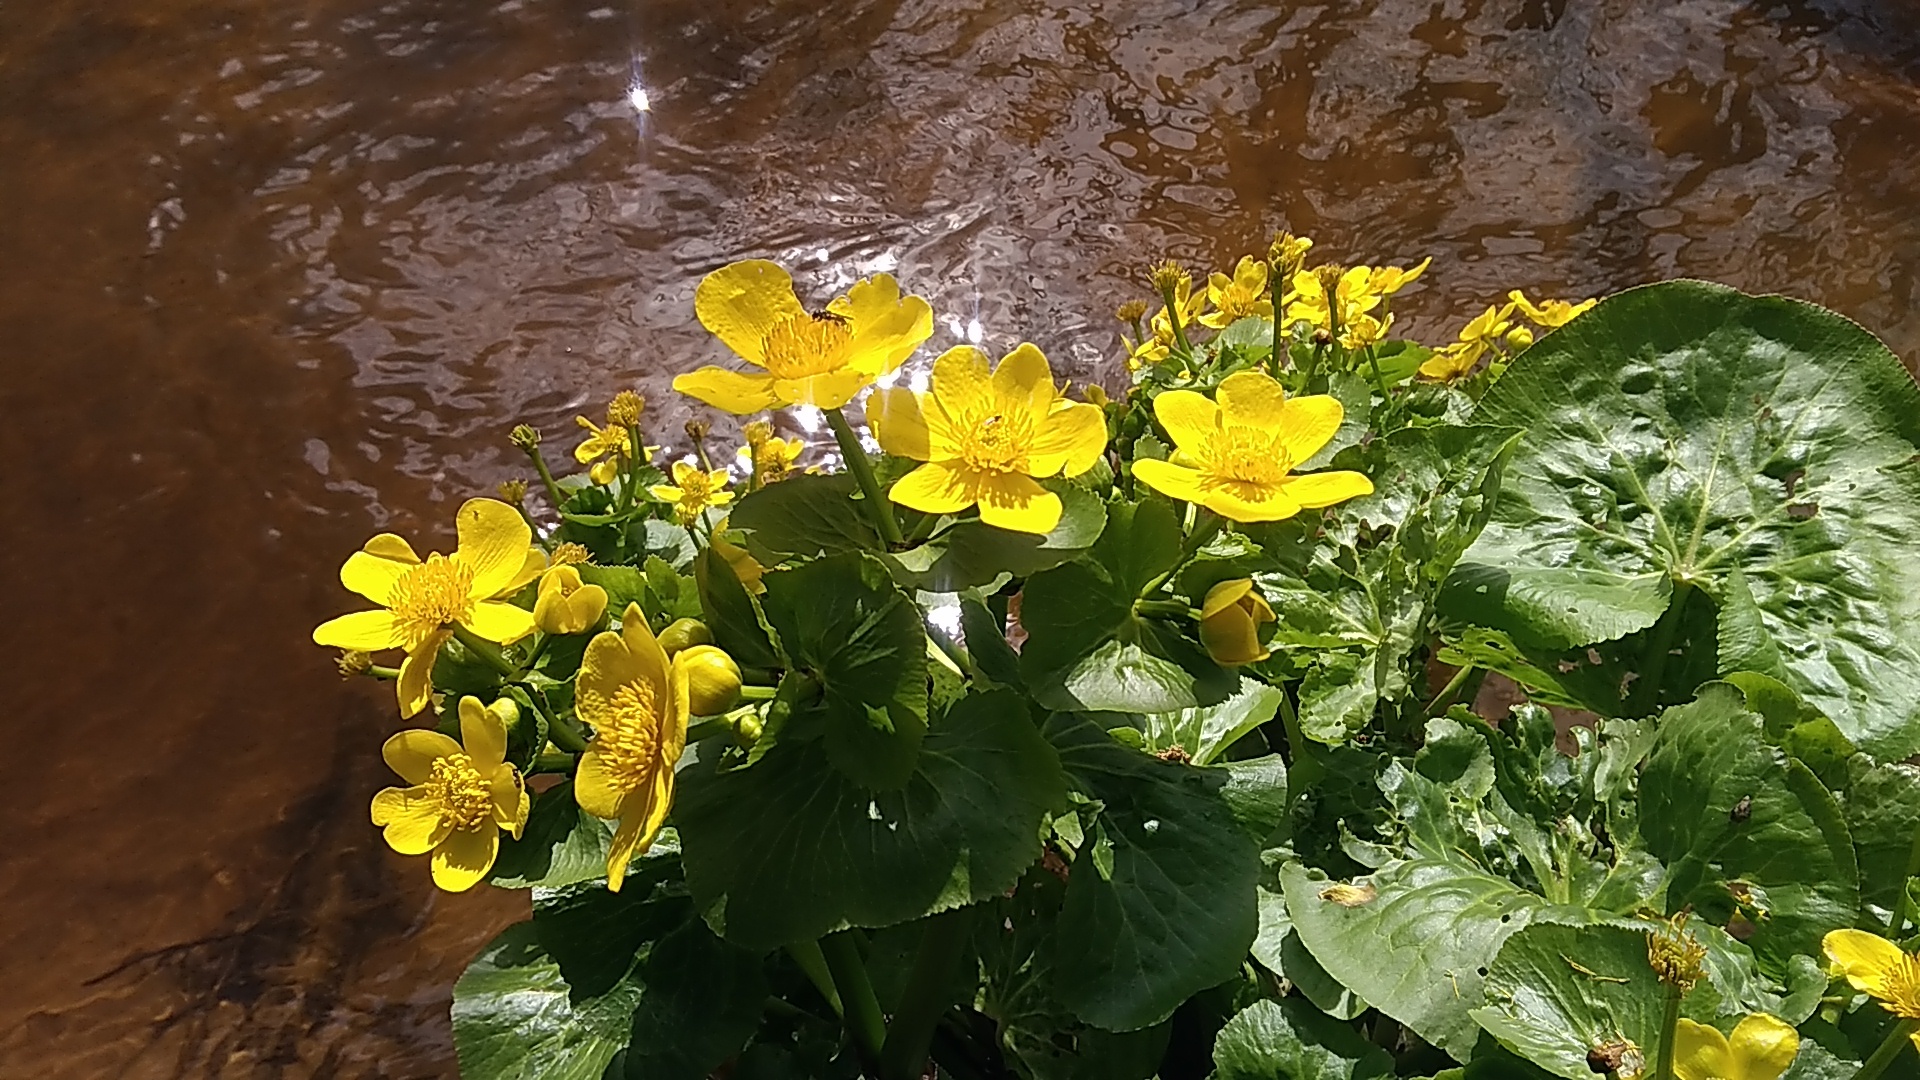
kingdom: Plantae
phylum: Tracheophyta
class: Magnoliopsida
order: Ranunculales
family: Ranunculaceae
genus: Caltha
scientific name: Caltha palustris
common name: Marsh marigold
